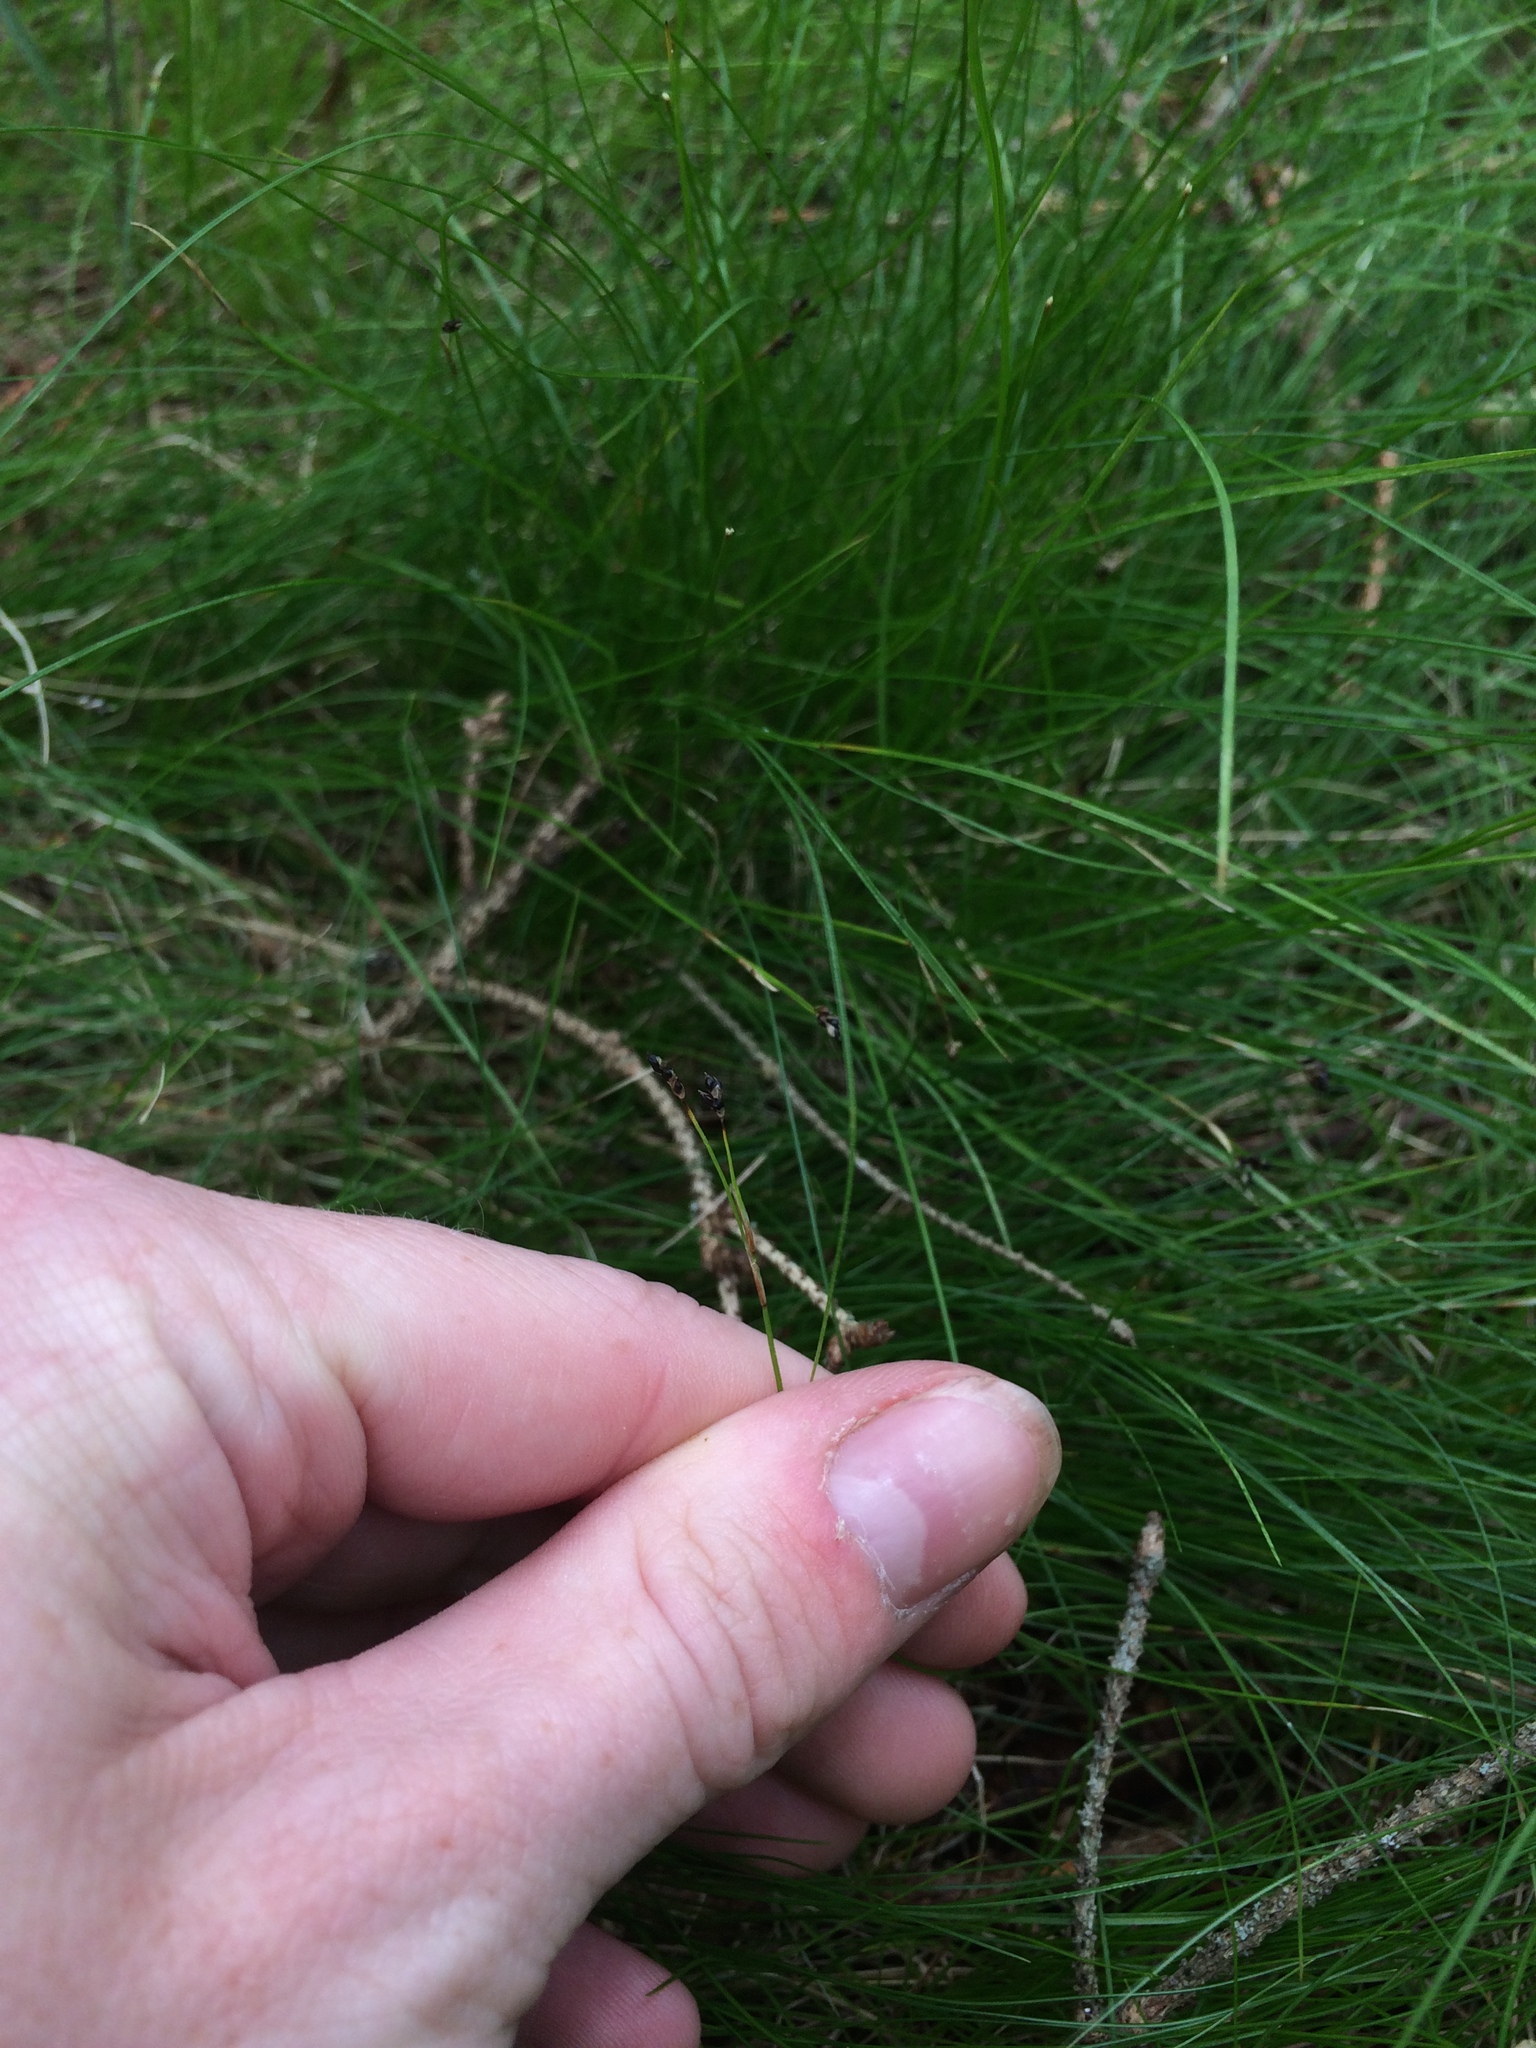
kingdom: Plantae
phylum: Tracheophyta
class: Liliopsida
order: Poales
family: Cyperaceae
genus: Carex
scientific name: Carex eburnea
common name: Bristle-leaved sedge
